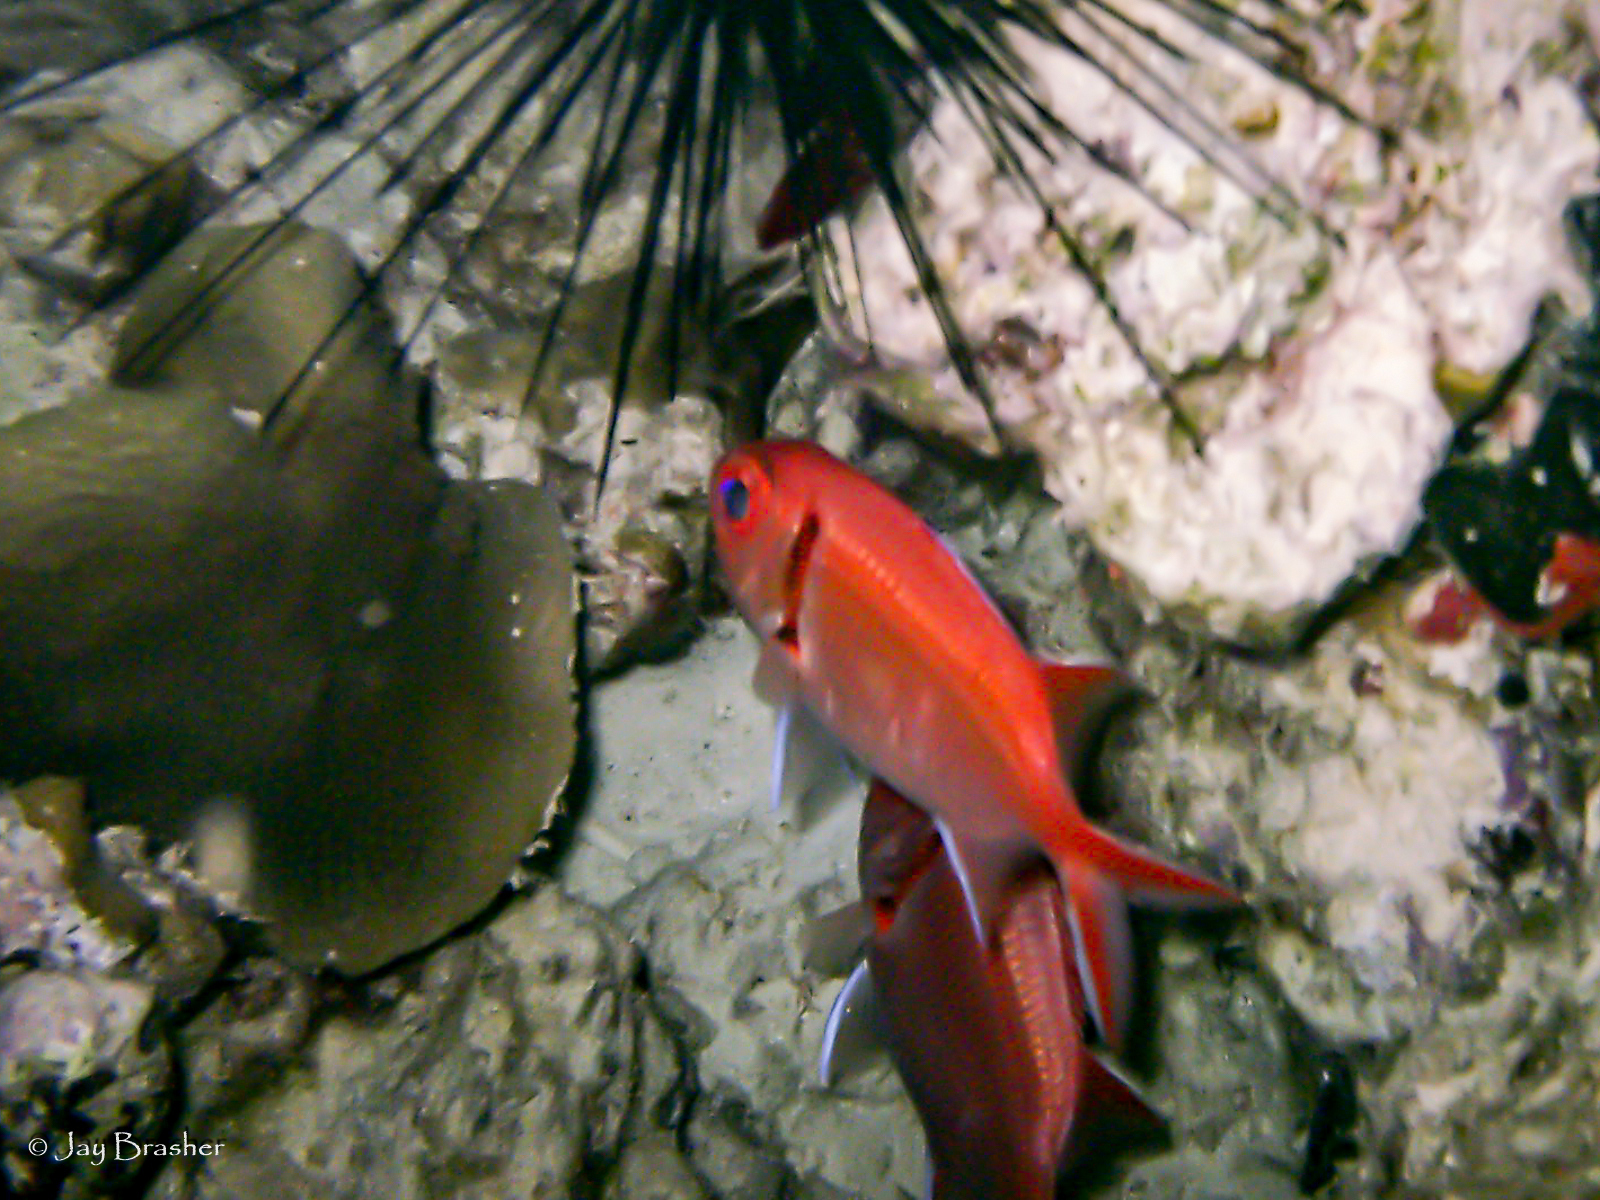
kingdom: Animalia
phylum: Chordata
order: Beryciformes
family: Holocentridae
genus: Myripristis
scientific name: Myripristis jacobus
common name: Blackbar soldierfish
